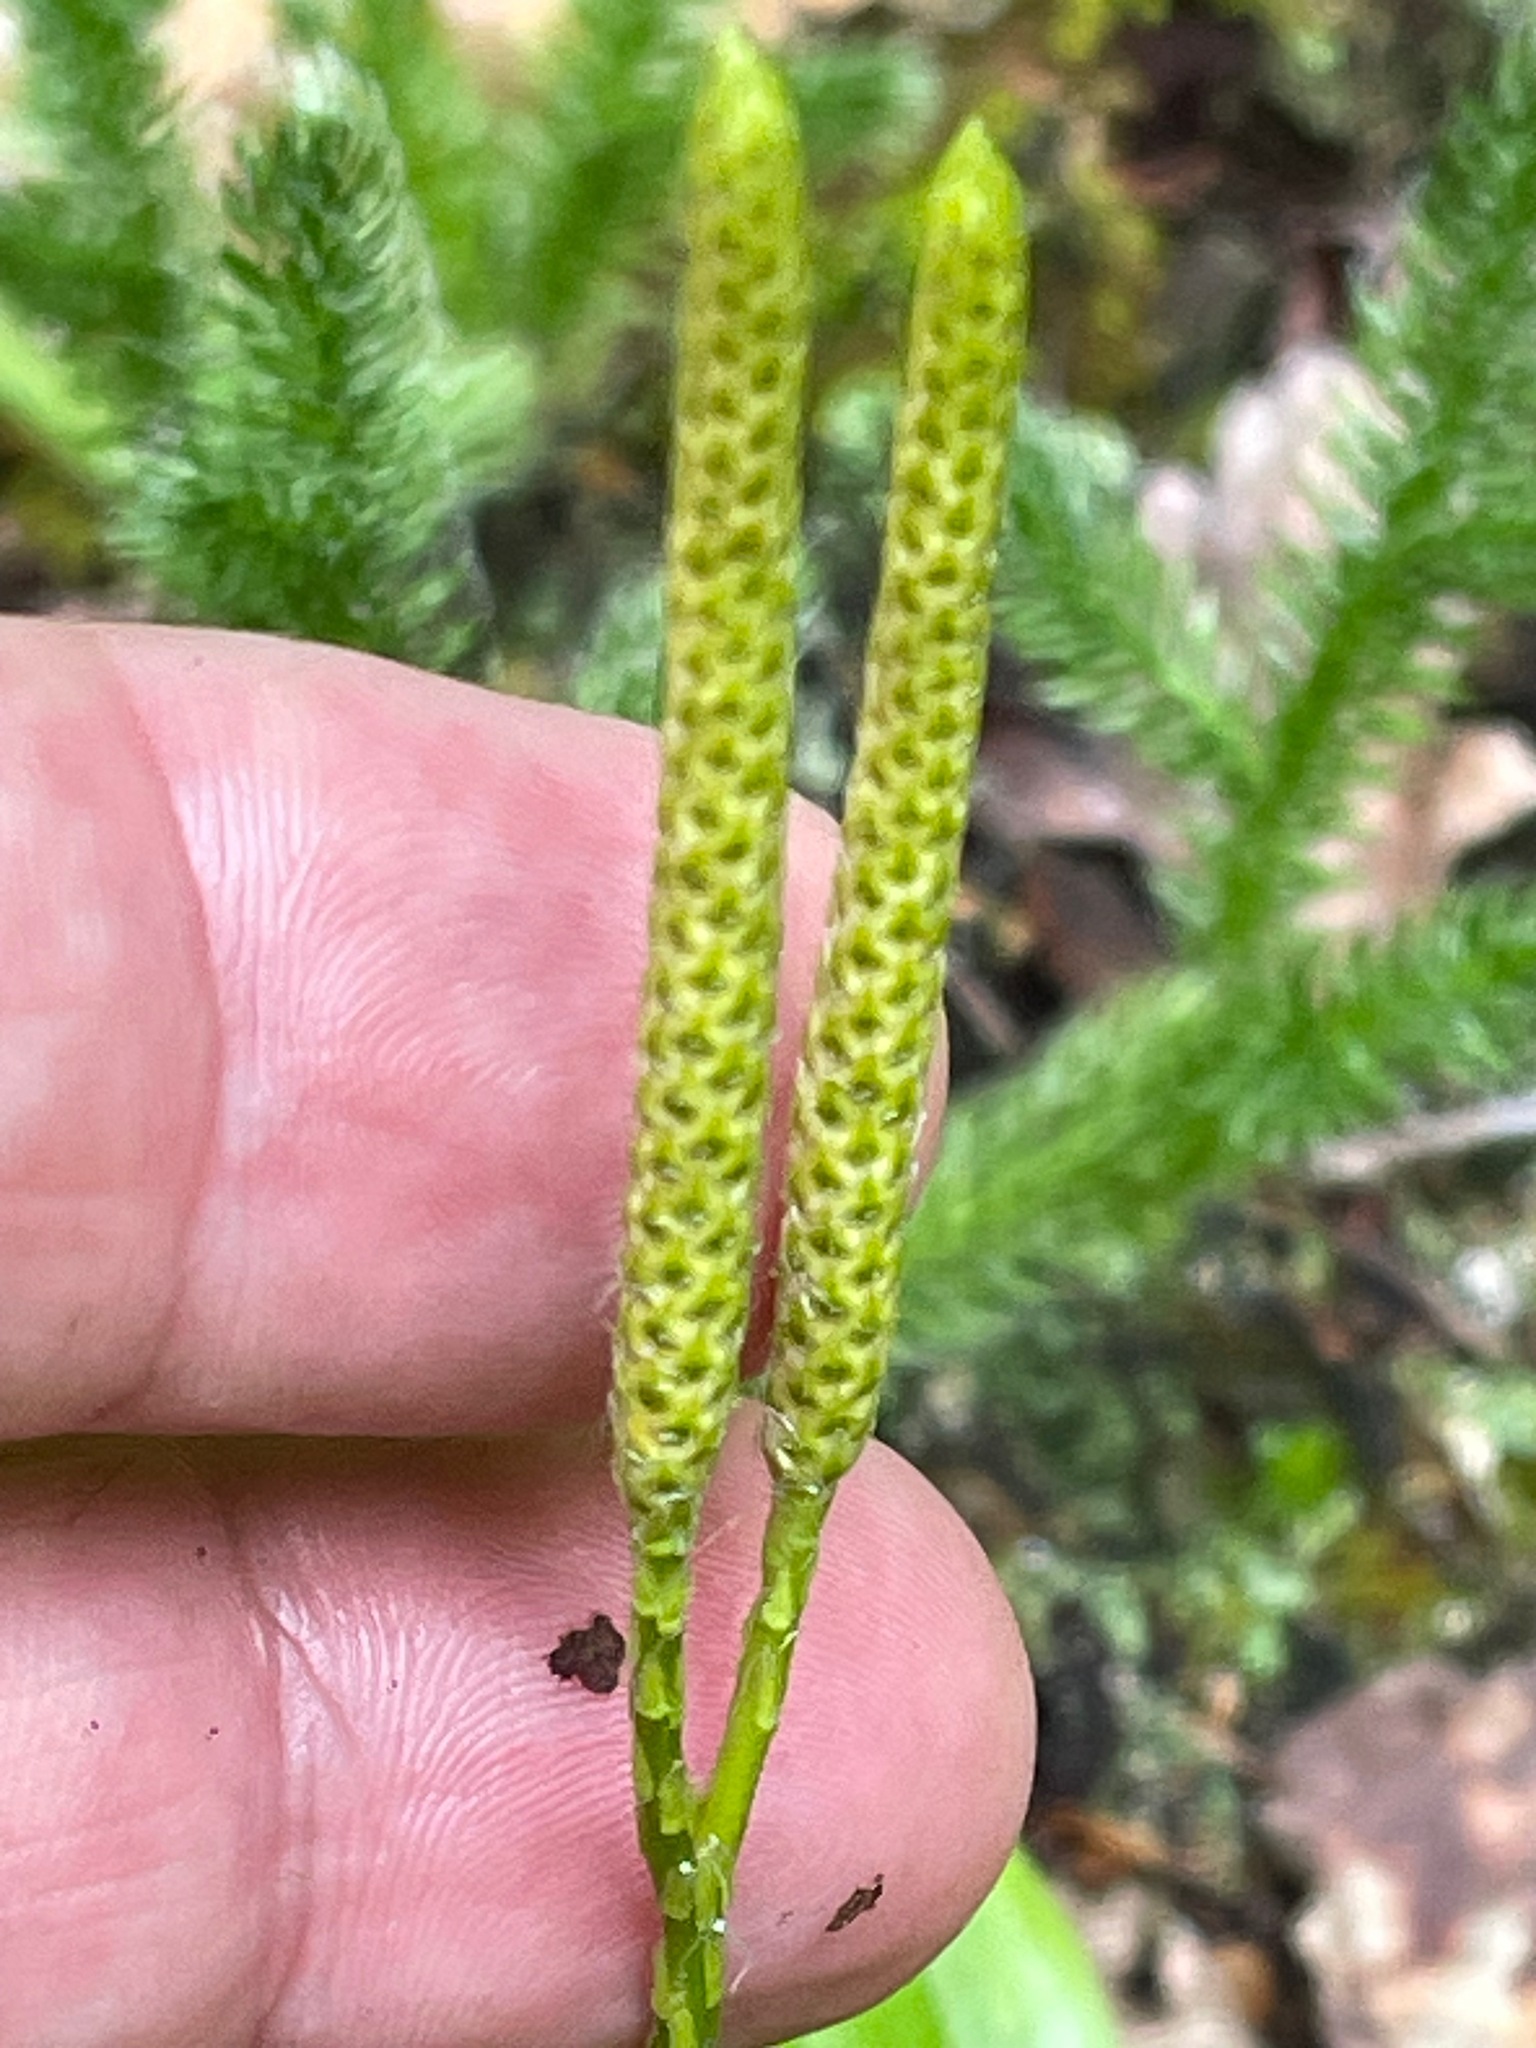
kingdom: Plantae
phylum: Tracheophyta
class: Lycopodiopsida
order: Lycopodiales
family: Lycopodiaceae
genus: Lycopodium
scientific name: Lycopodium clavatum
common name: Stag's-horn clubmoss
